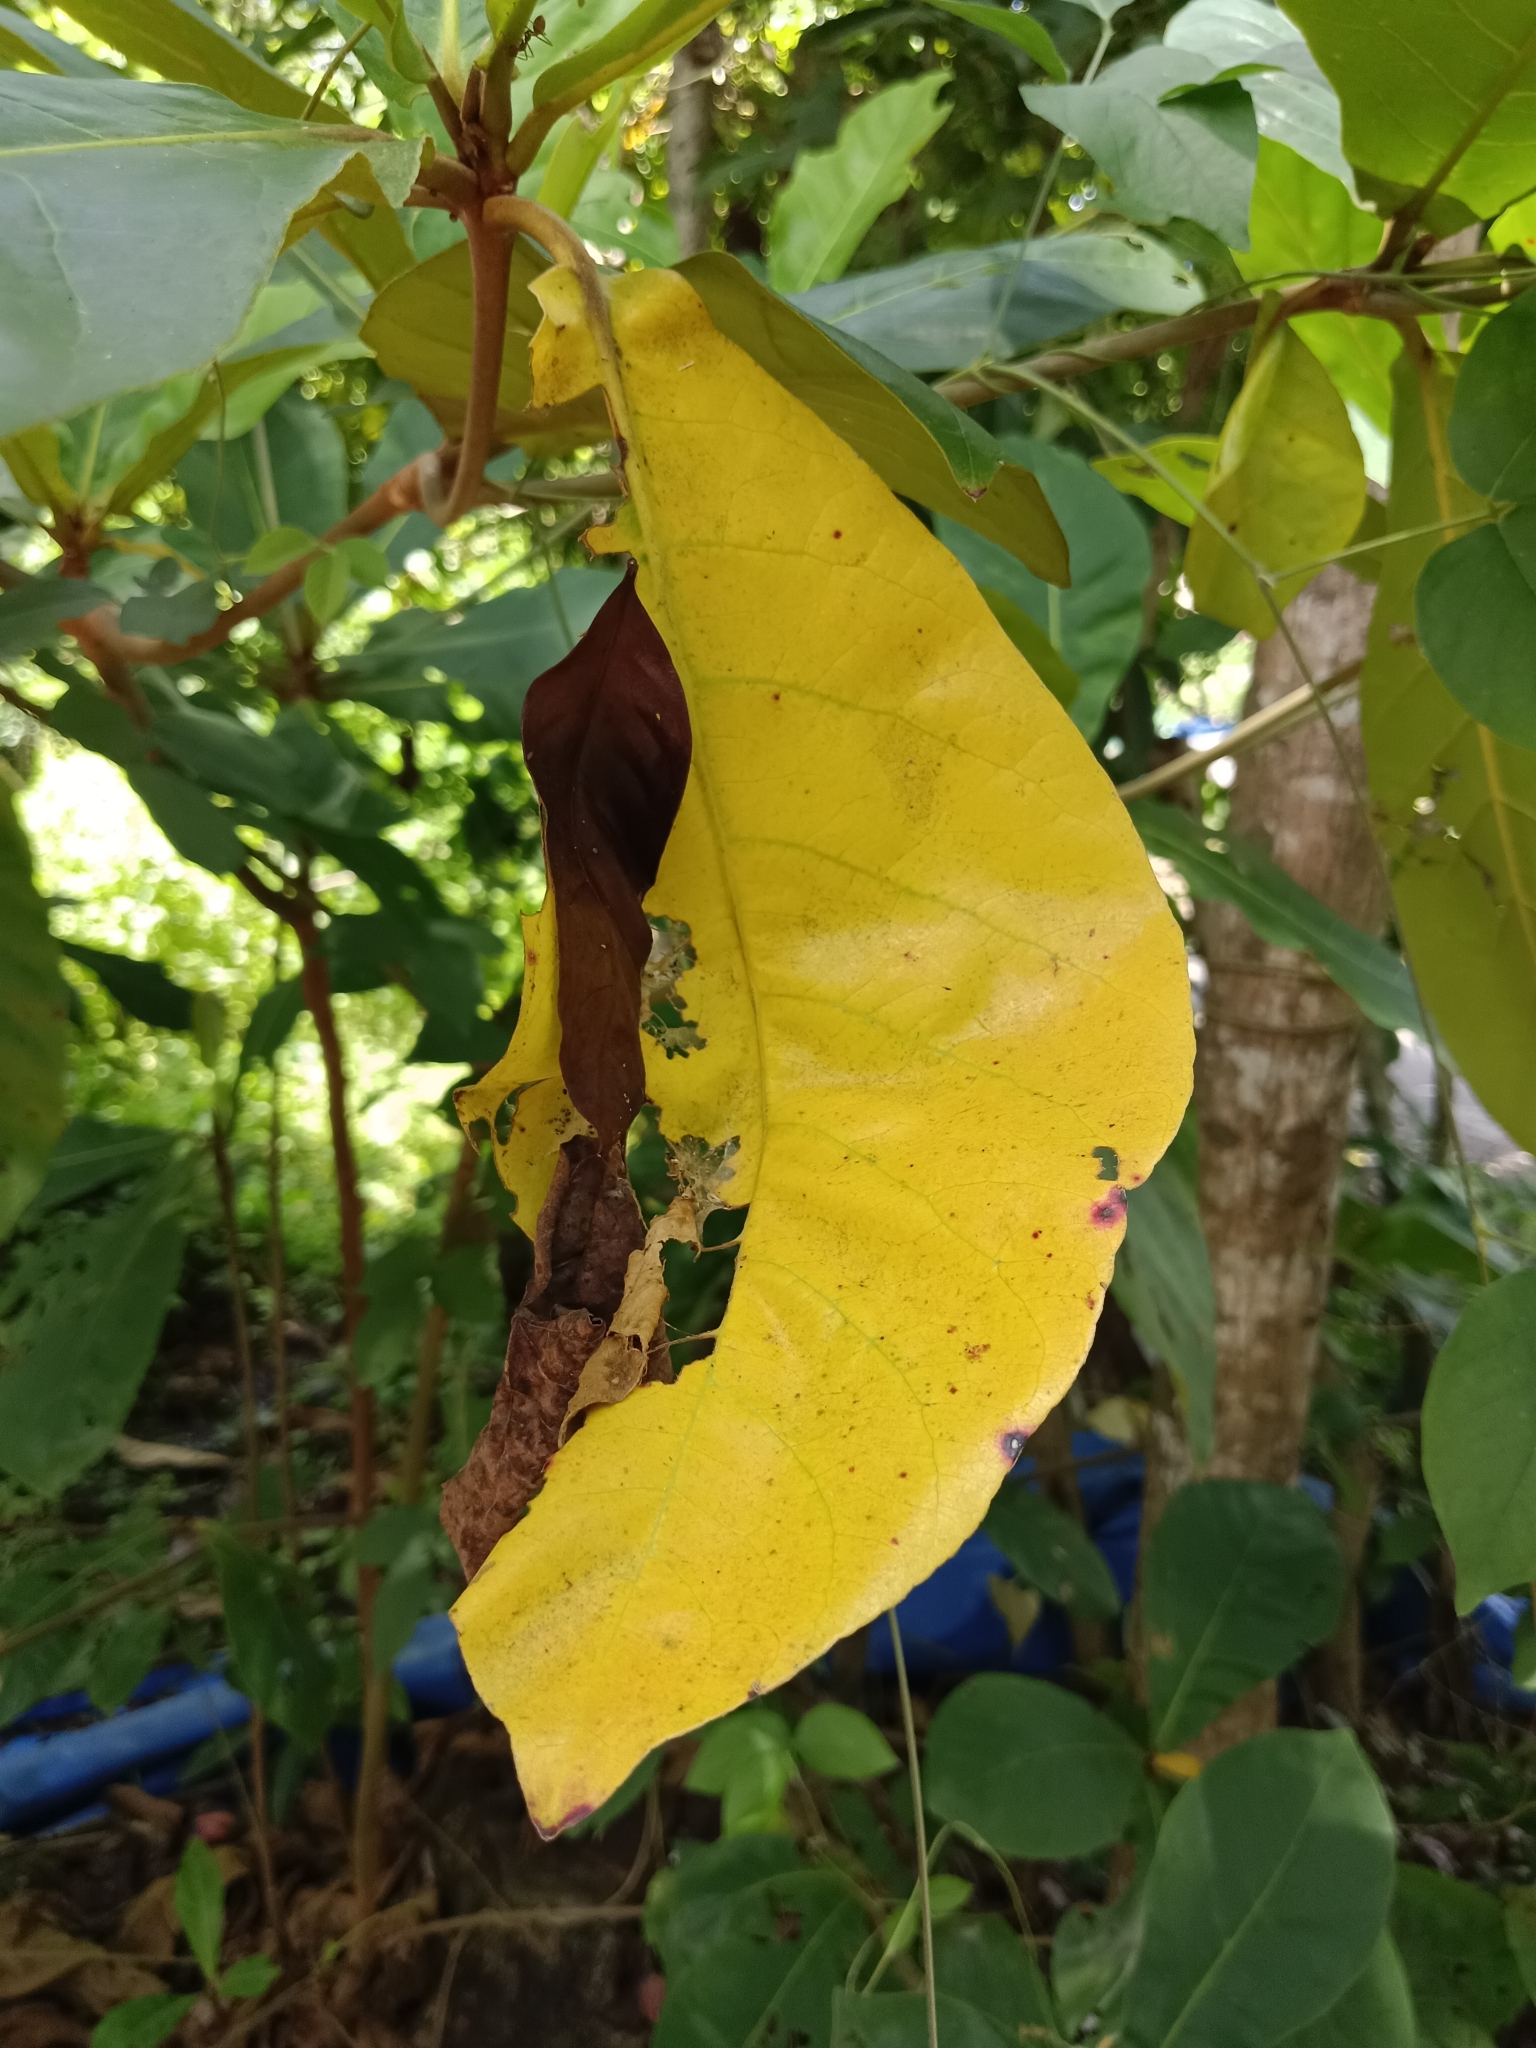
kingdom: Plantae
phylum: Tracheophyta
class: Magnoliopsida
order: Myrtales
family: Combretaceae
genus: Terminalia
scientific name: Terminalia catappa
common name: Tropical almond
